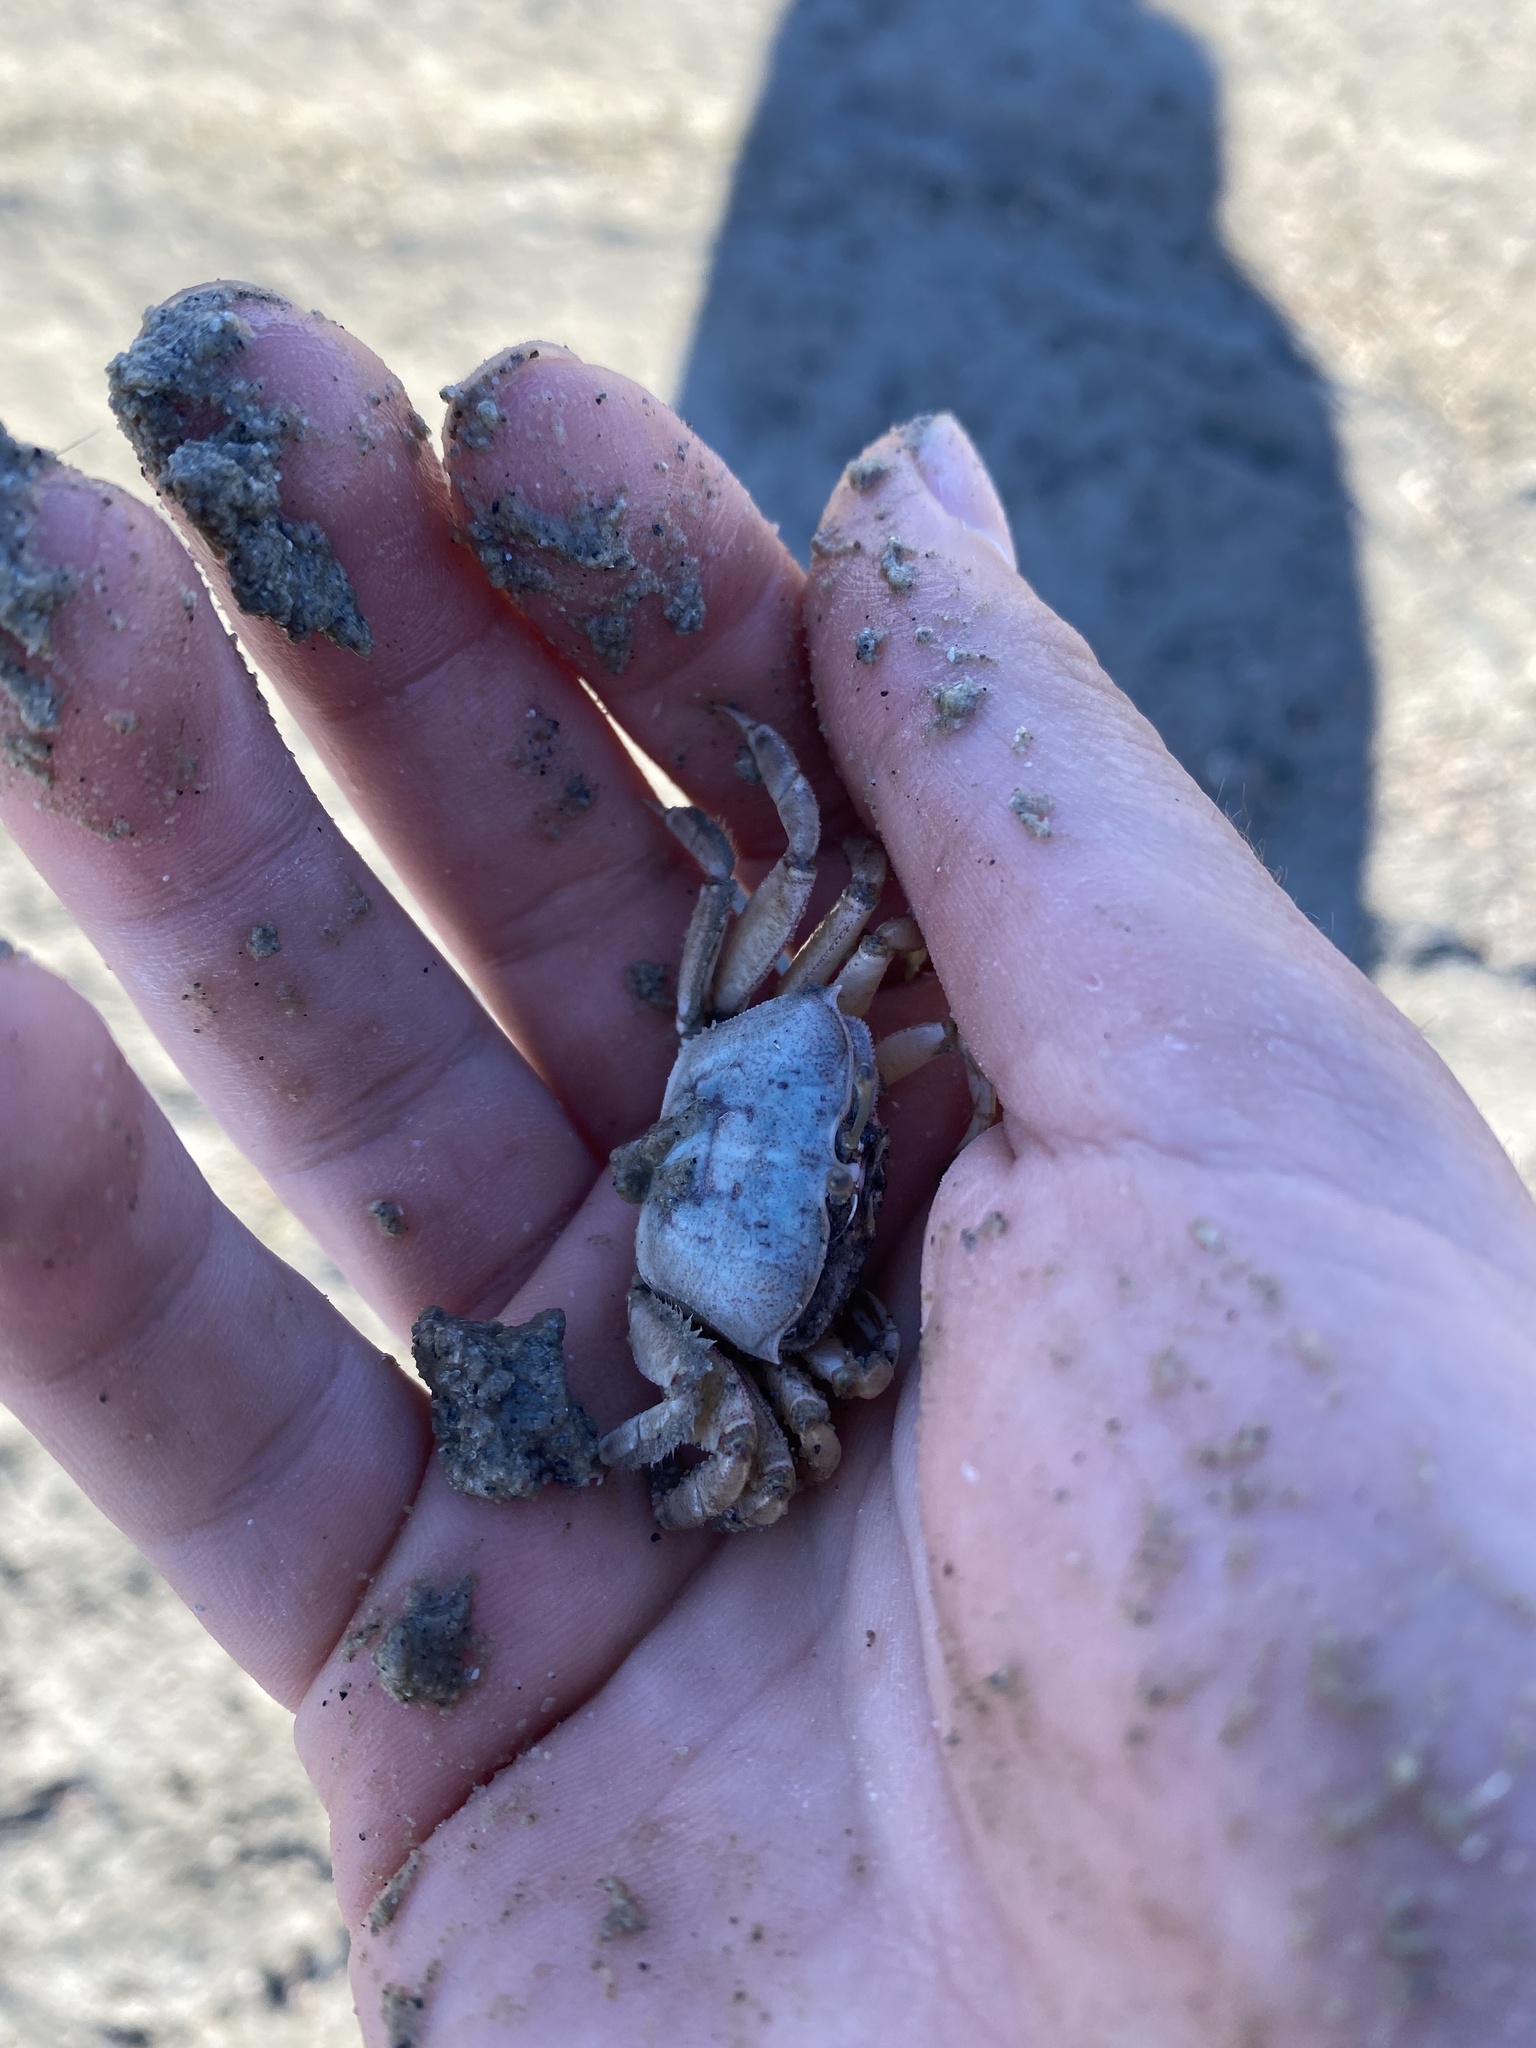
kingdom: Animalia
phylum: Arthropoda
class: Malacostraca
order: Decapoda
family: Ocypodidae
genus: Uca
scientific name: Uca princeps
